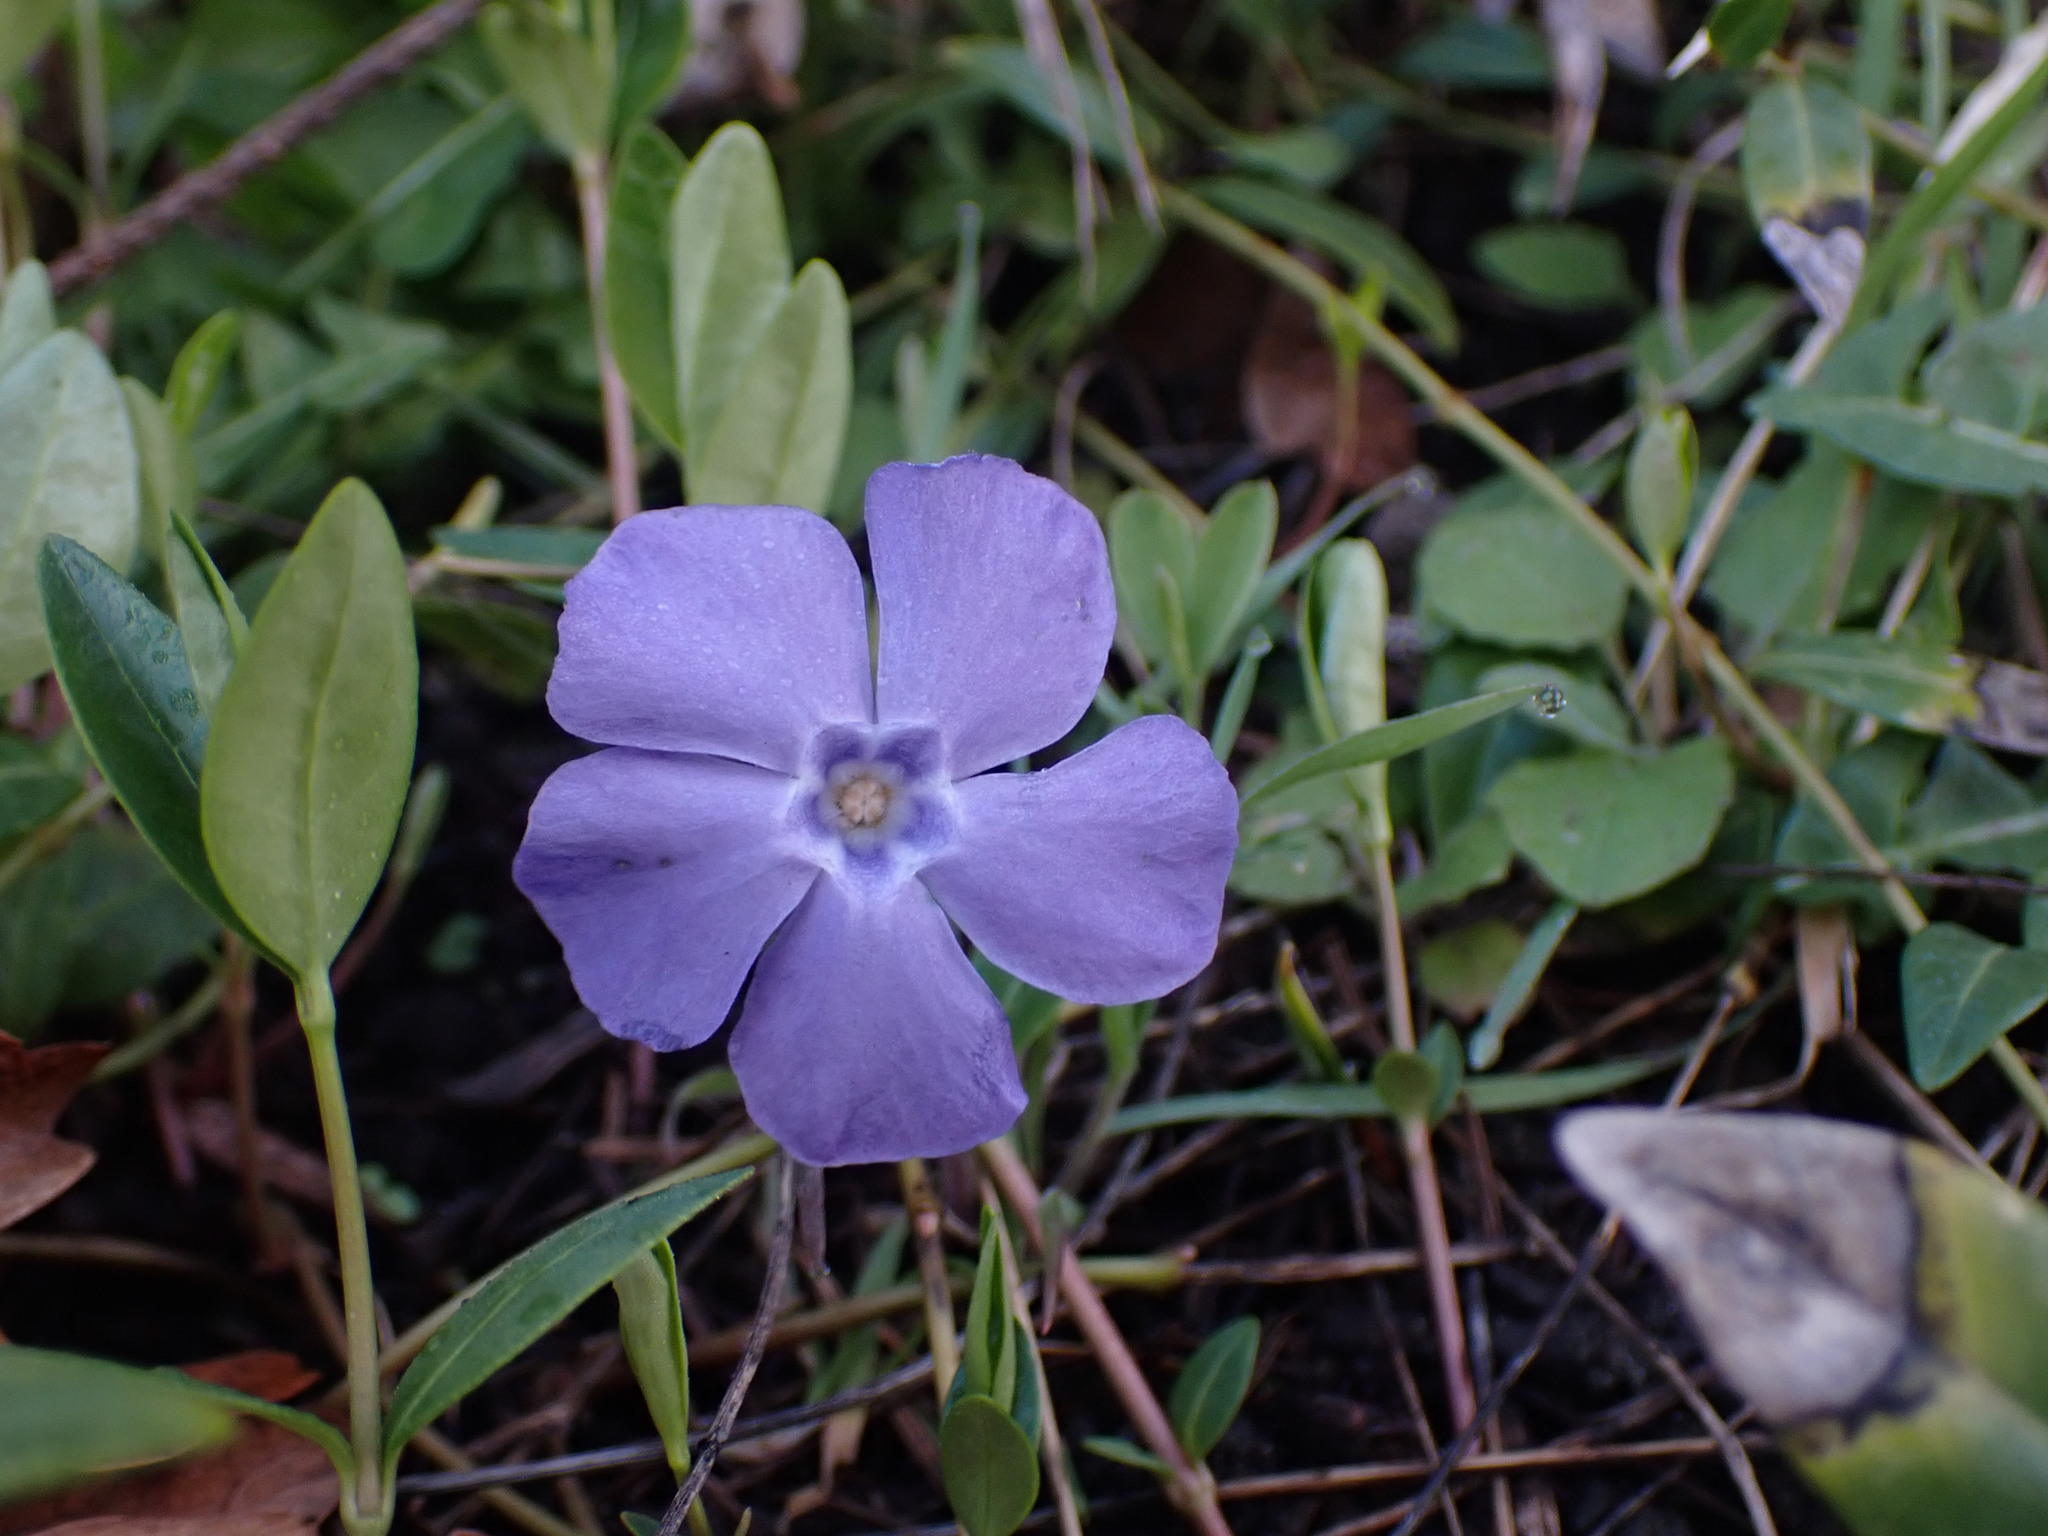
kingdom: Plantae
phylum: Tracheophyta
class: Magnoliopsida
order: Gentianales
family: Apocynaceae
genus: Vinca
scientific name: Vinca minor
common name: Lesser periwinkle
